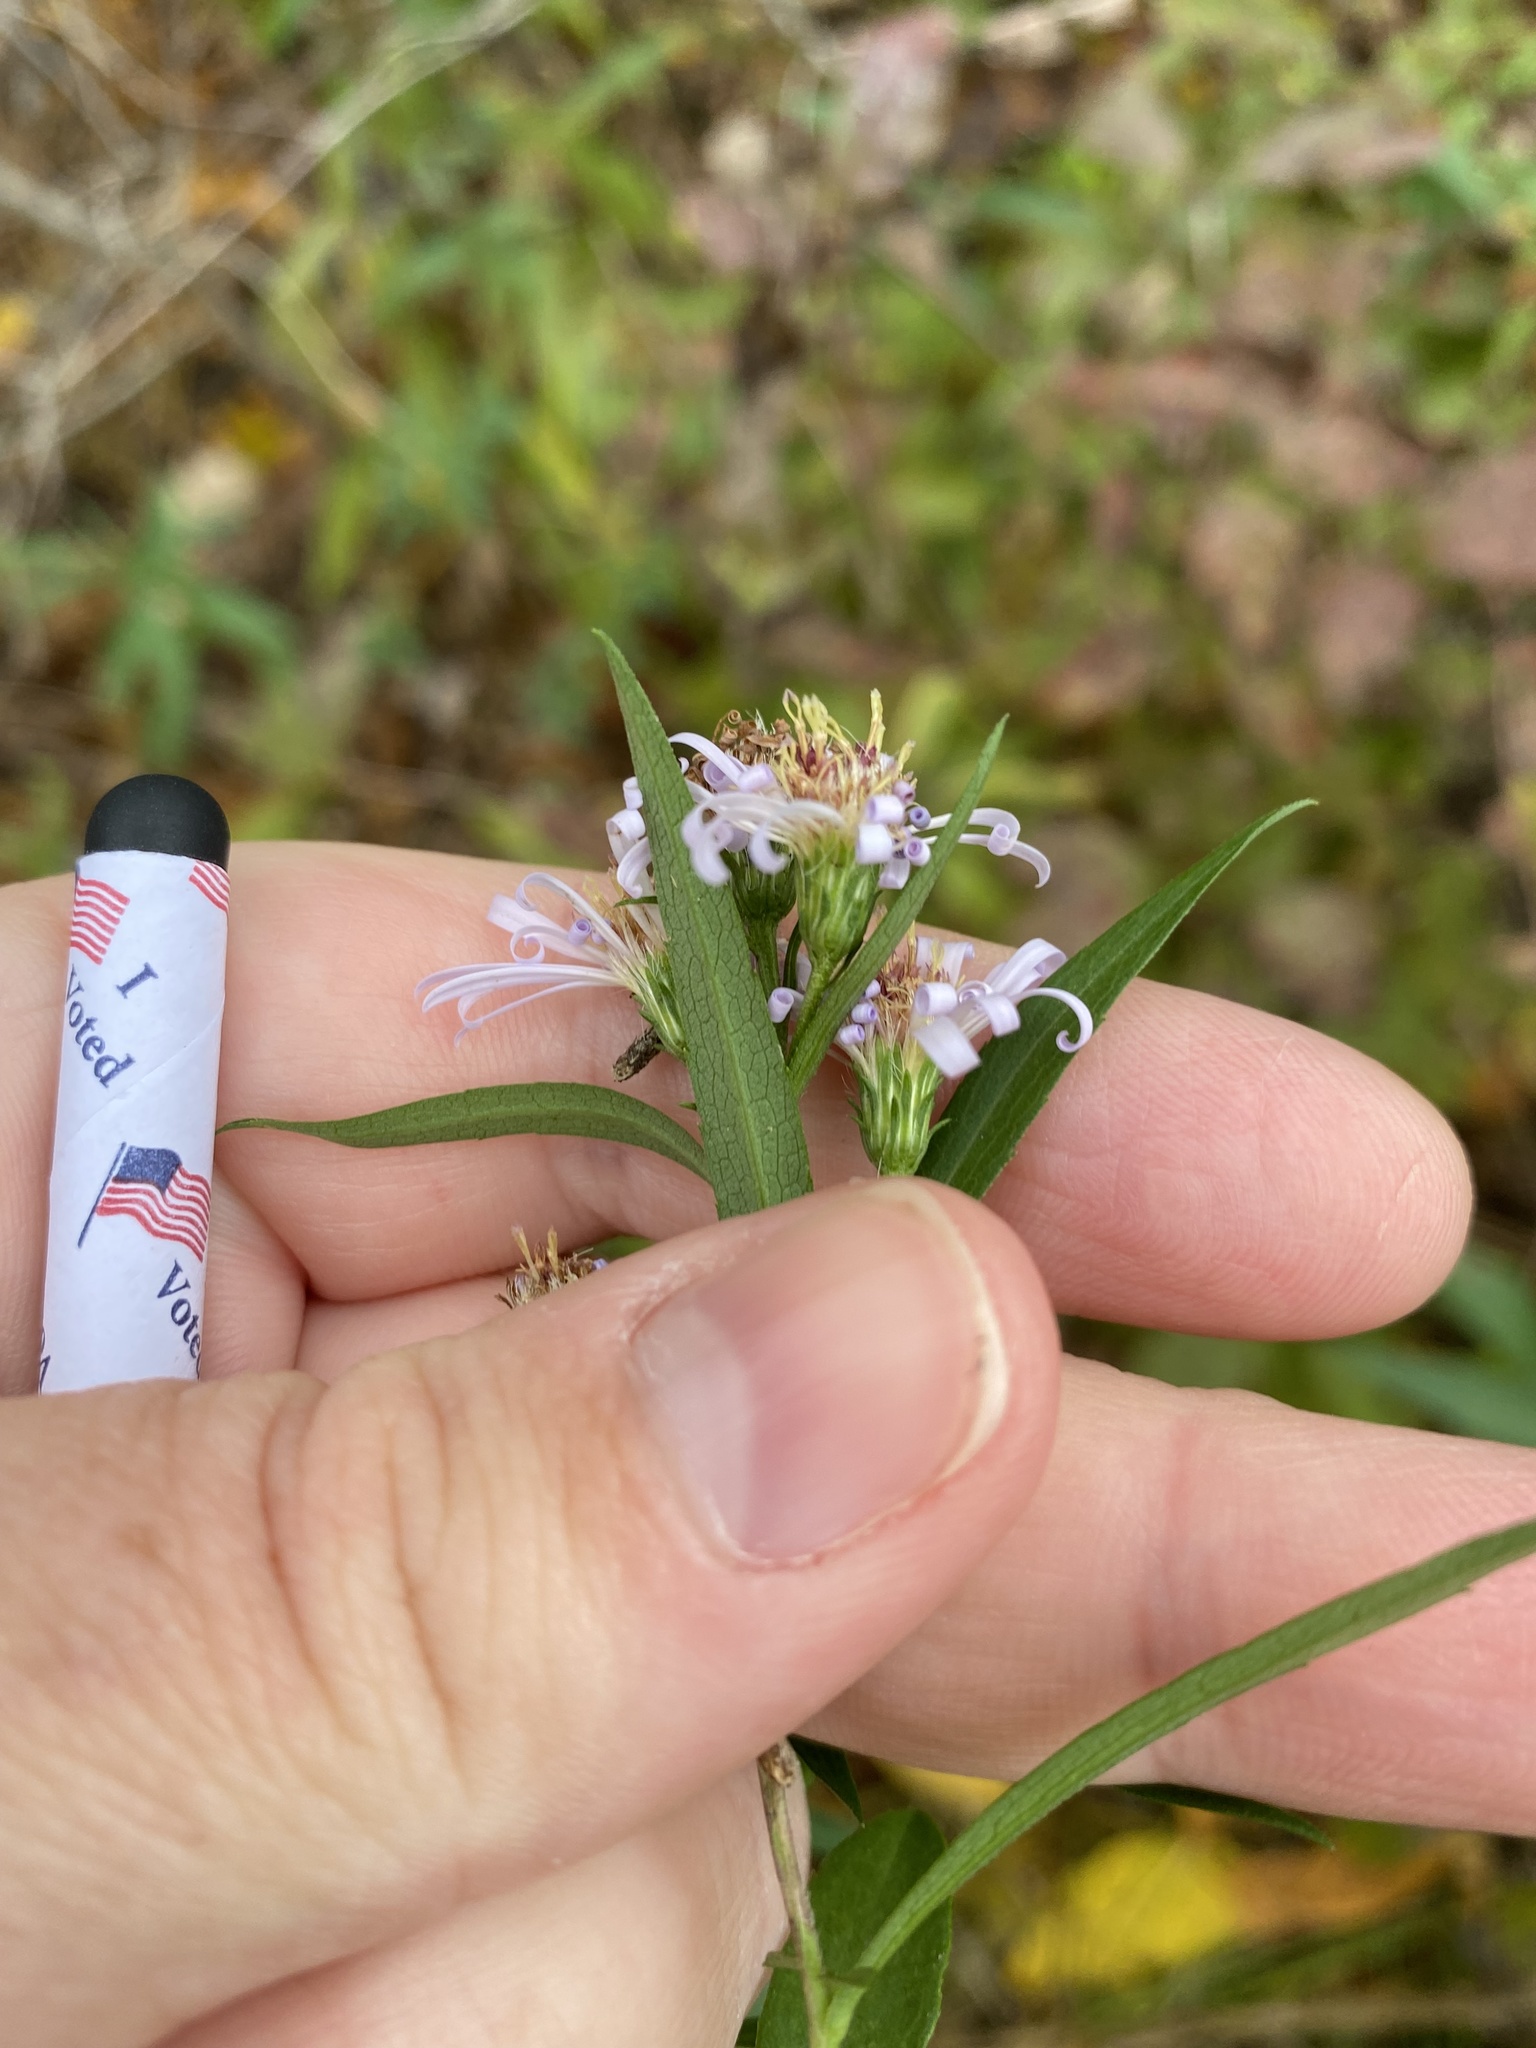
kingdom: Plantae
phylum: Tracheophyta
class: Magnoliopsida
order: Asterales
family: Asteraceae
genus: Symphyotrichum
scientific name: Symphyotrichum lanceolatum
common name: Panicled aster
